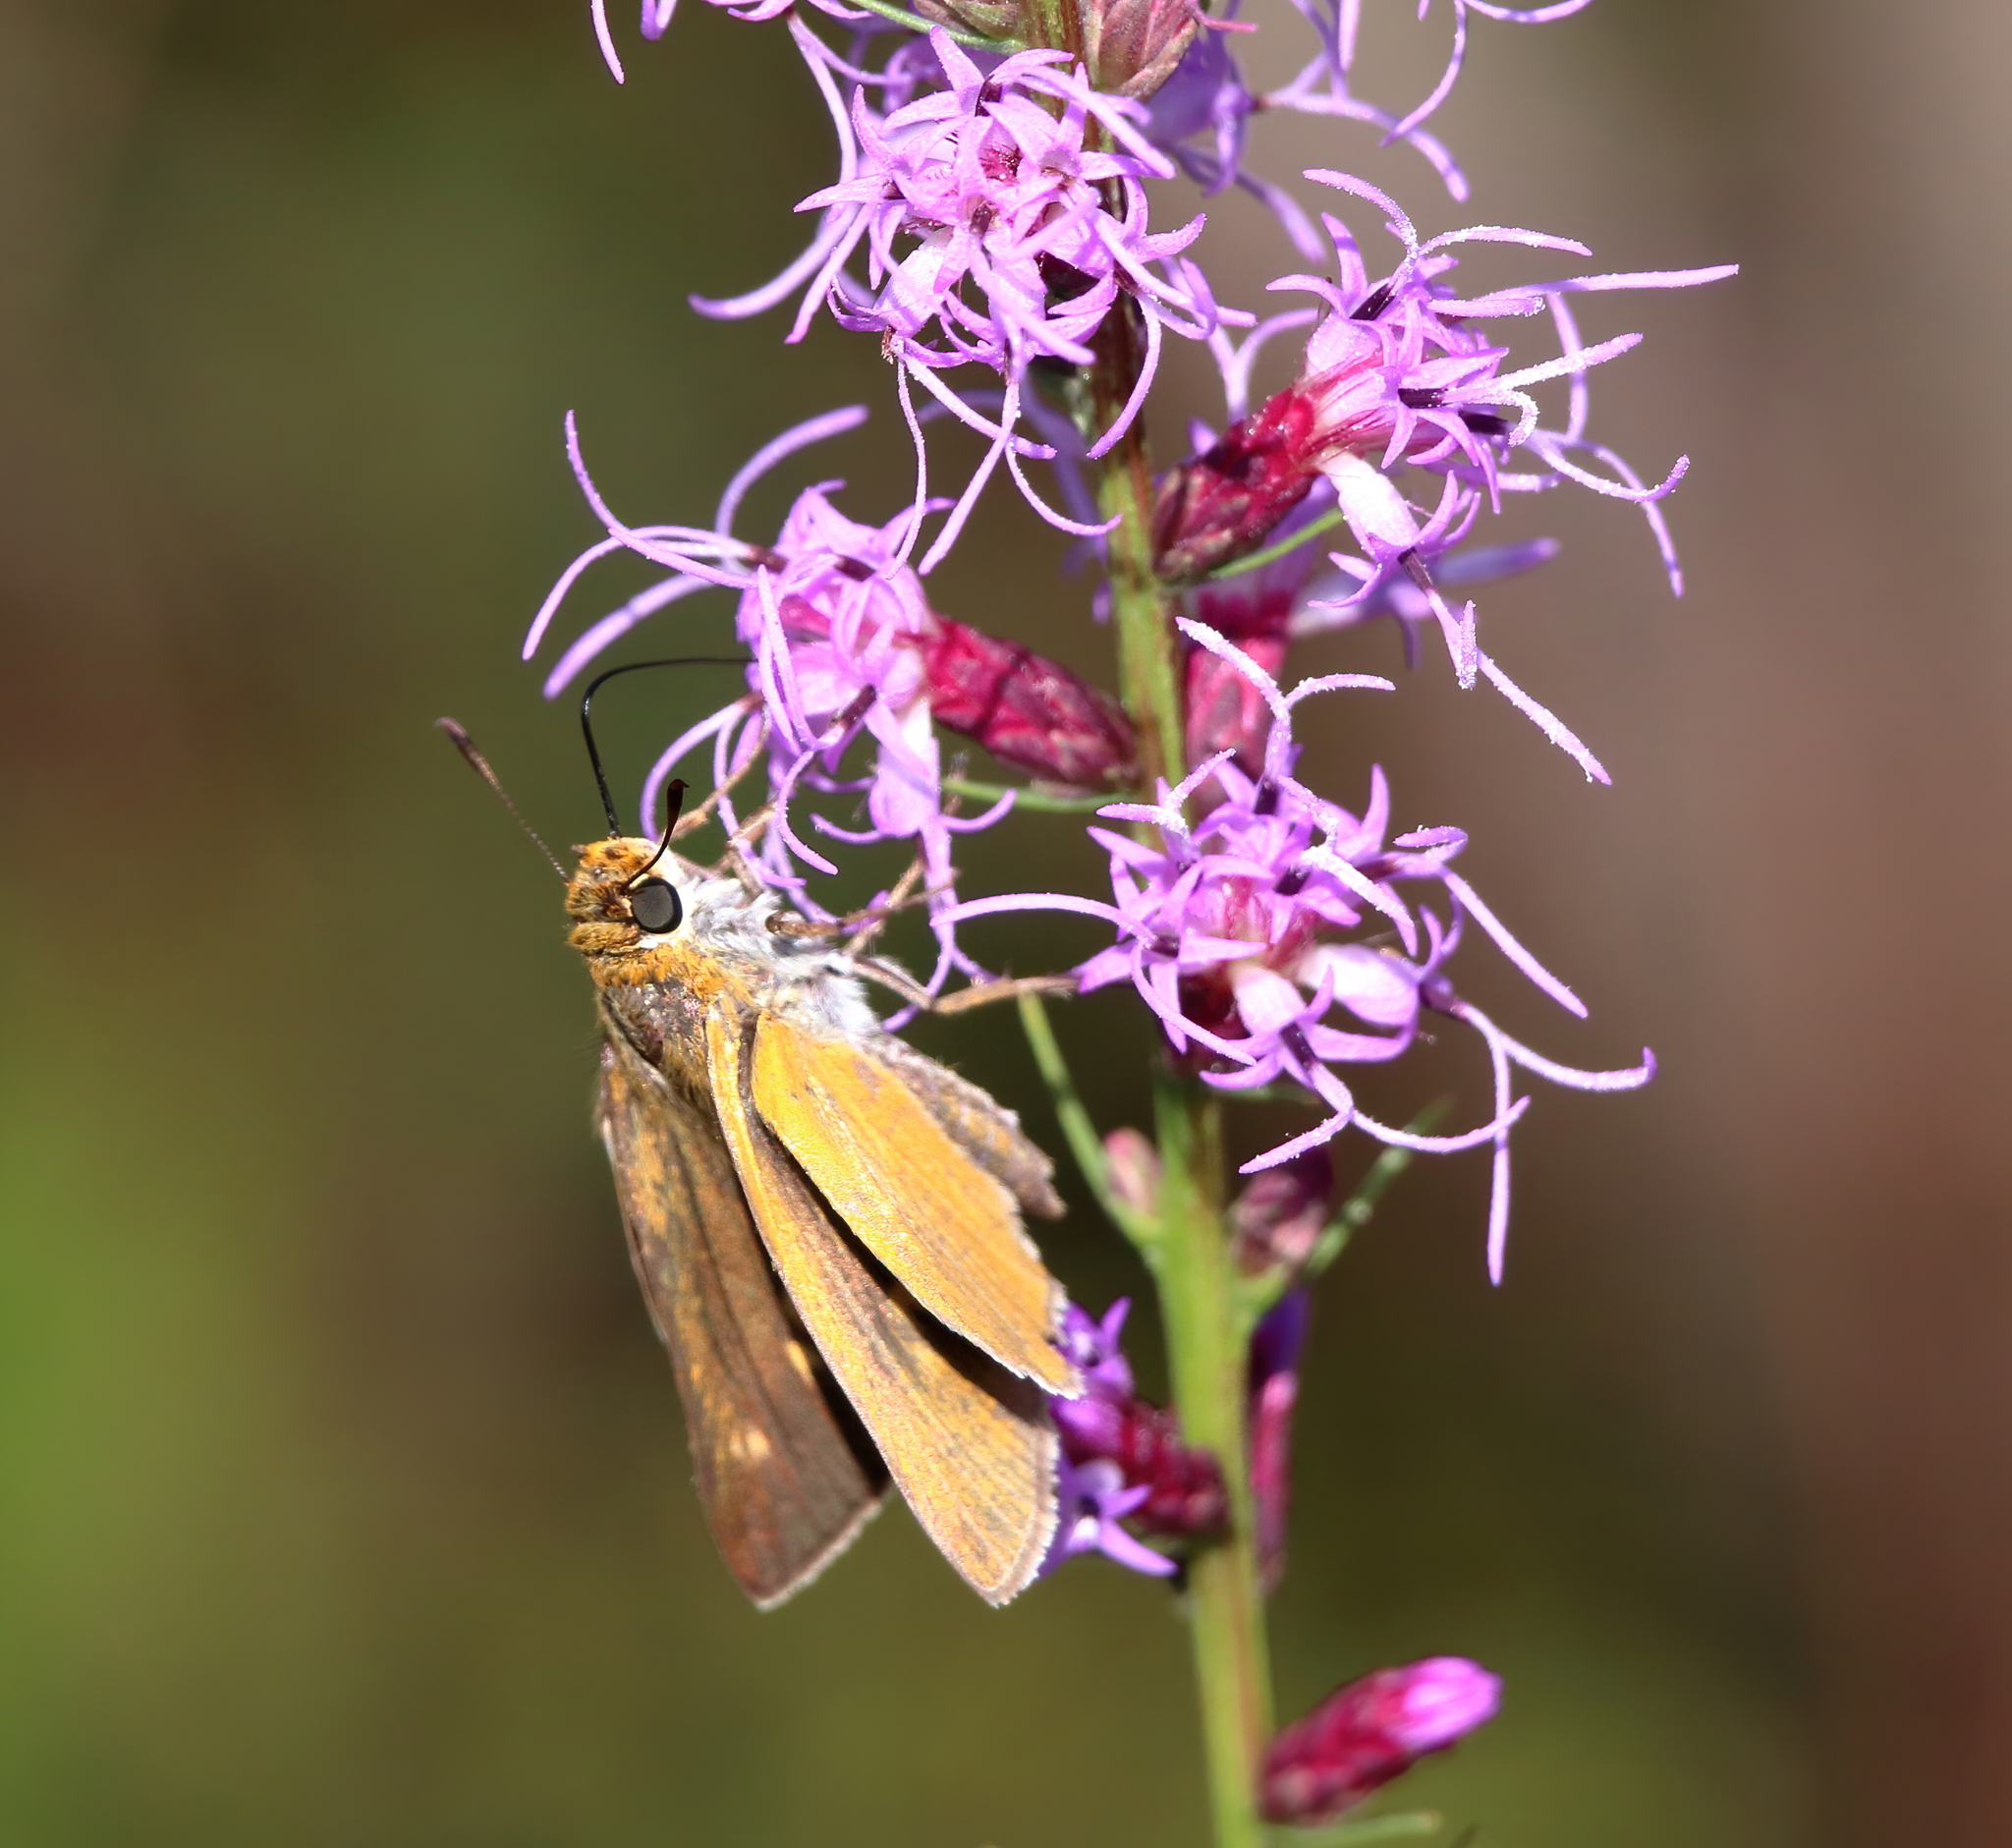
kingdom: Animalia
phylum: Arthropoda
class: Insecta
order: Lepidoptera
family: Hesperiidae
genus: Euphyes
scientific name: Euphyes arpa
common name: Palmetto skipper
